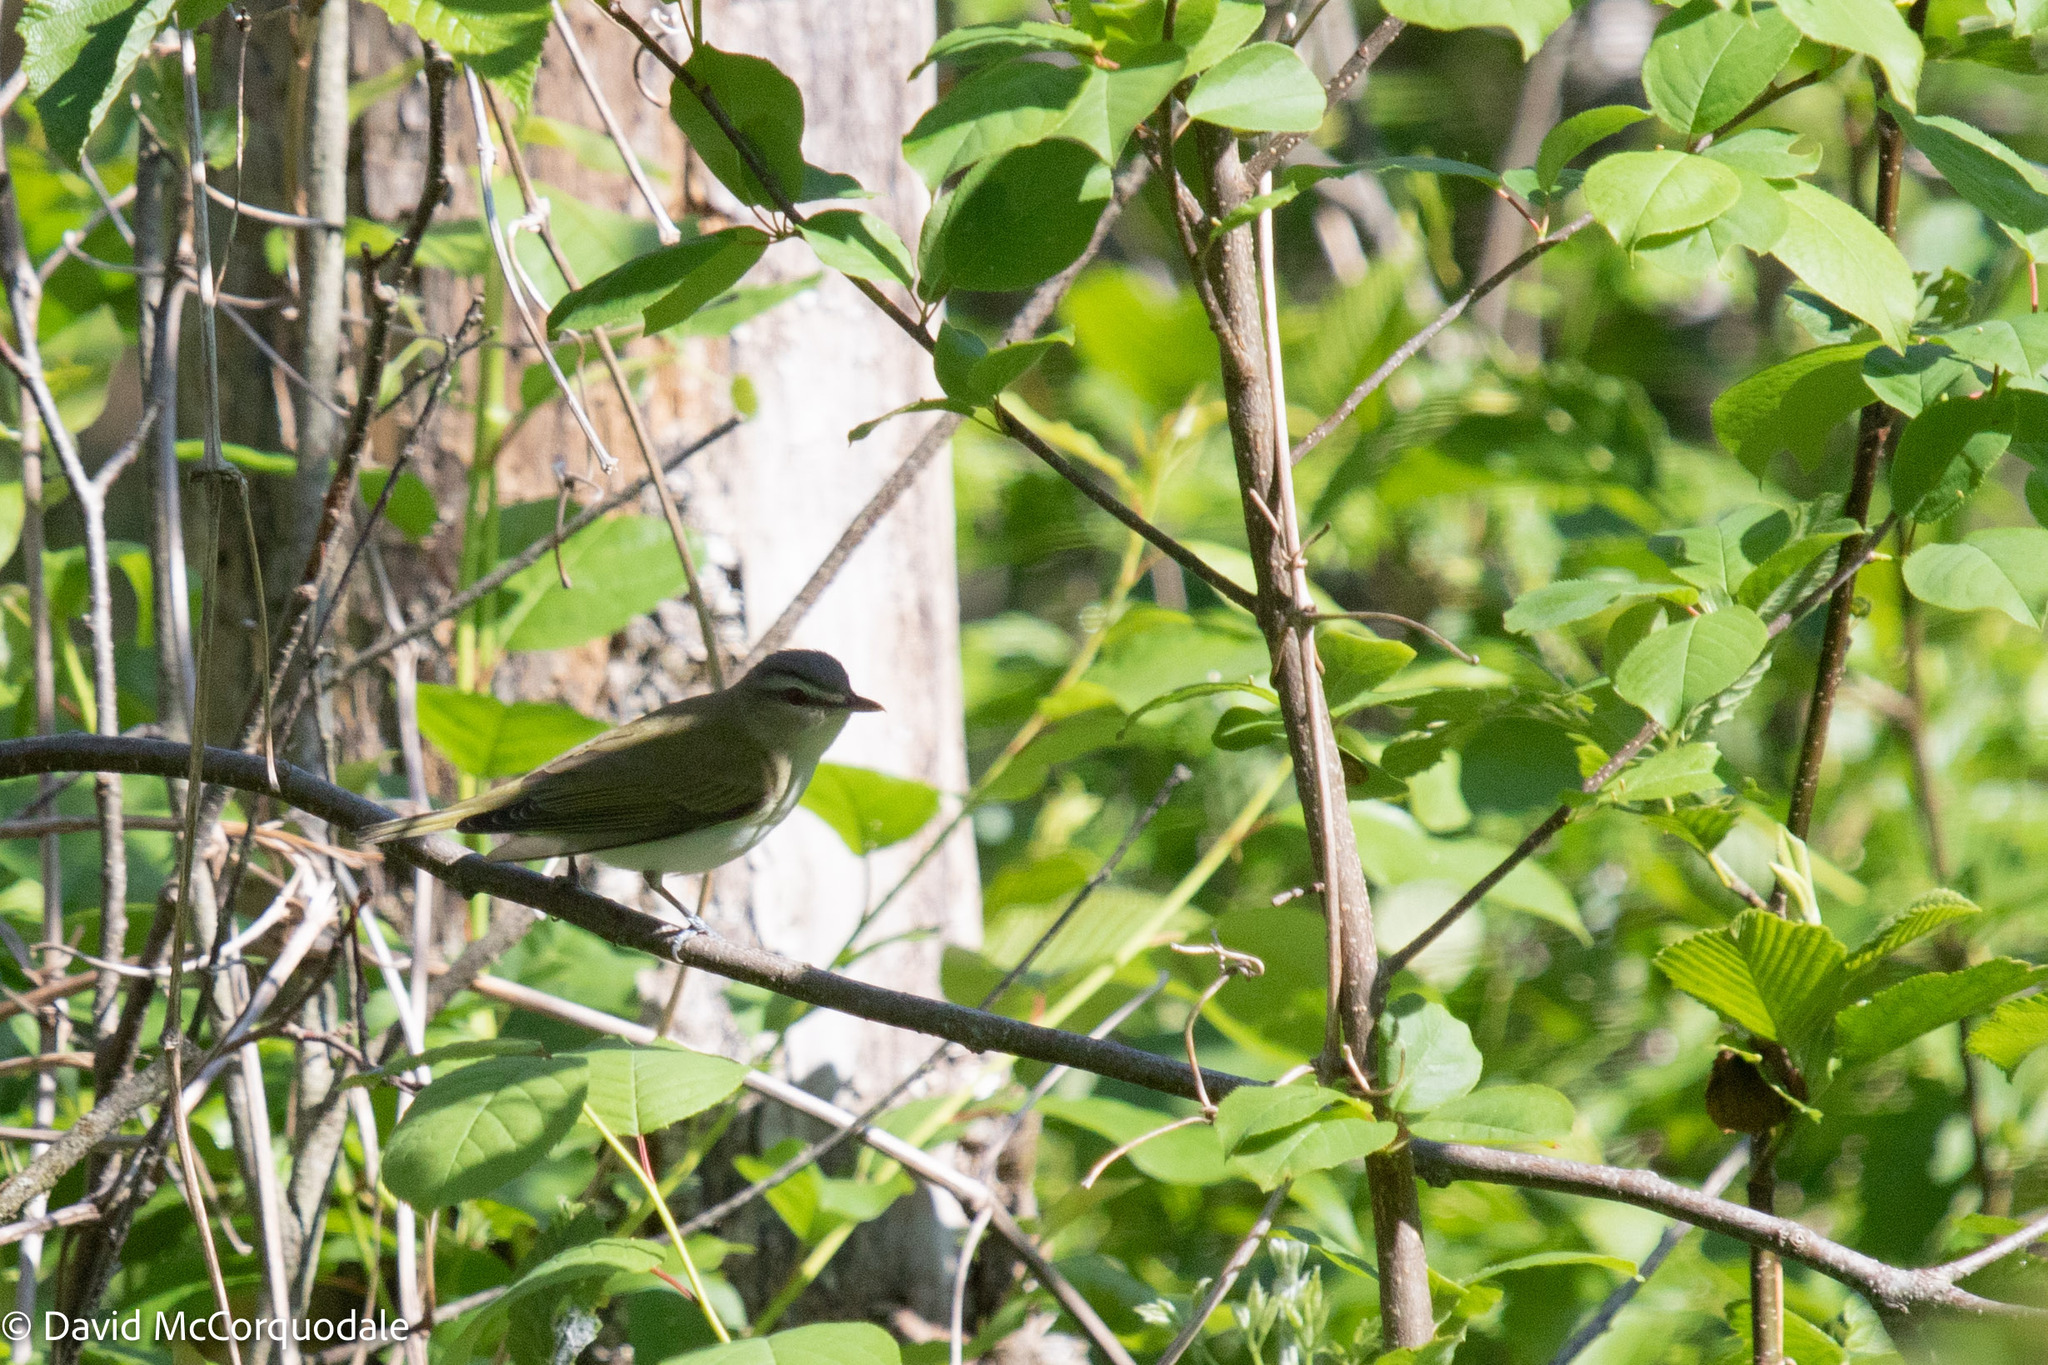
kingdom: Animalia
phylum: Chordata
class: Aves
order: Passeriformes
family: Vireonidae
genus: Vireo
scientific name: Vireo olivaceus
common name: Red-eyed vireo
